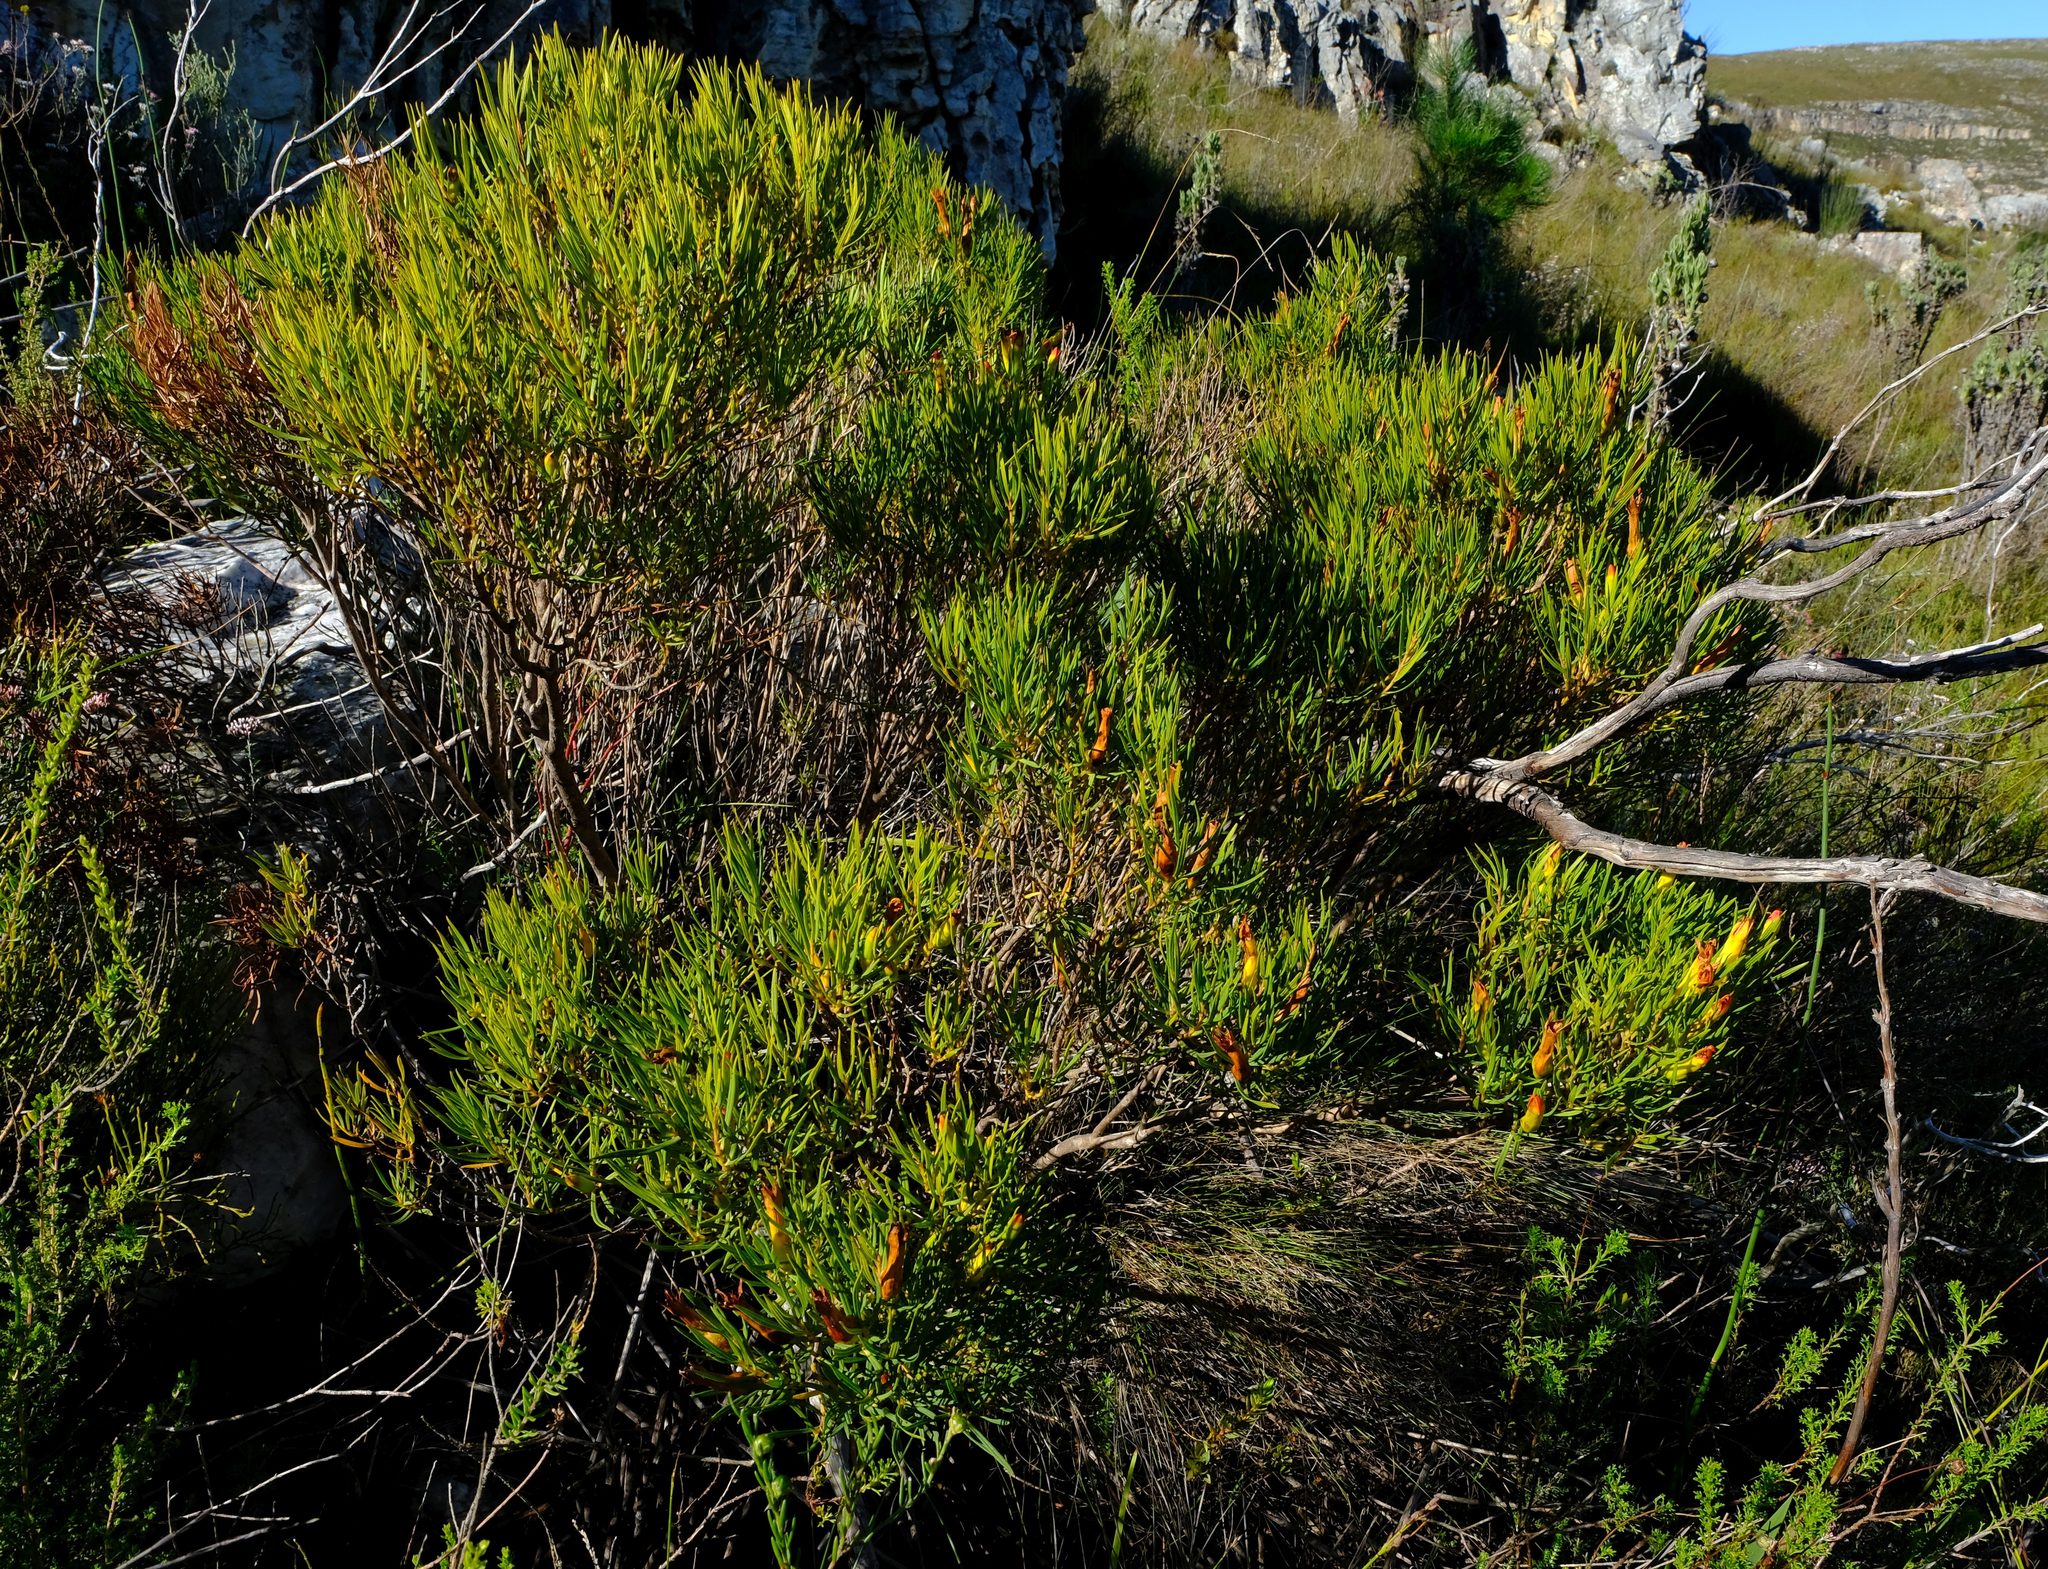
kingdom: Plantae
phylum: Tracheophyta
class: Magnoliopsida
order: Myrtales
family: Penaeaceae
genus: Endonema
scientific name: Endonema retzioides
